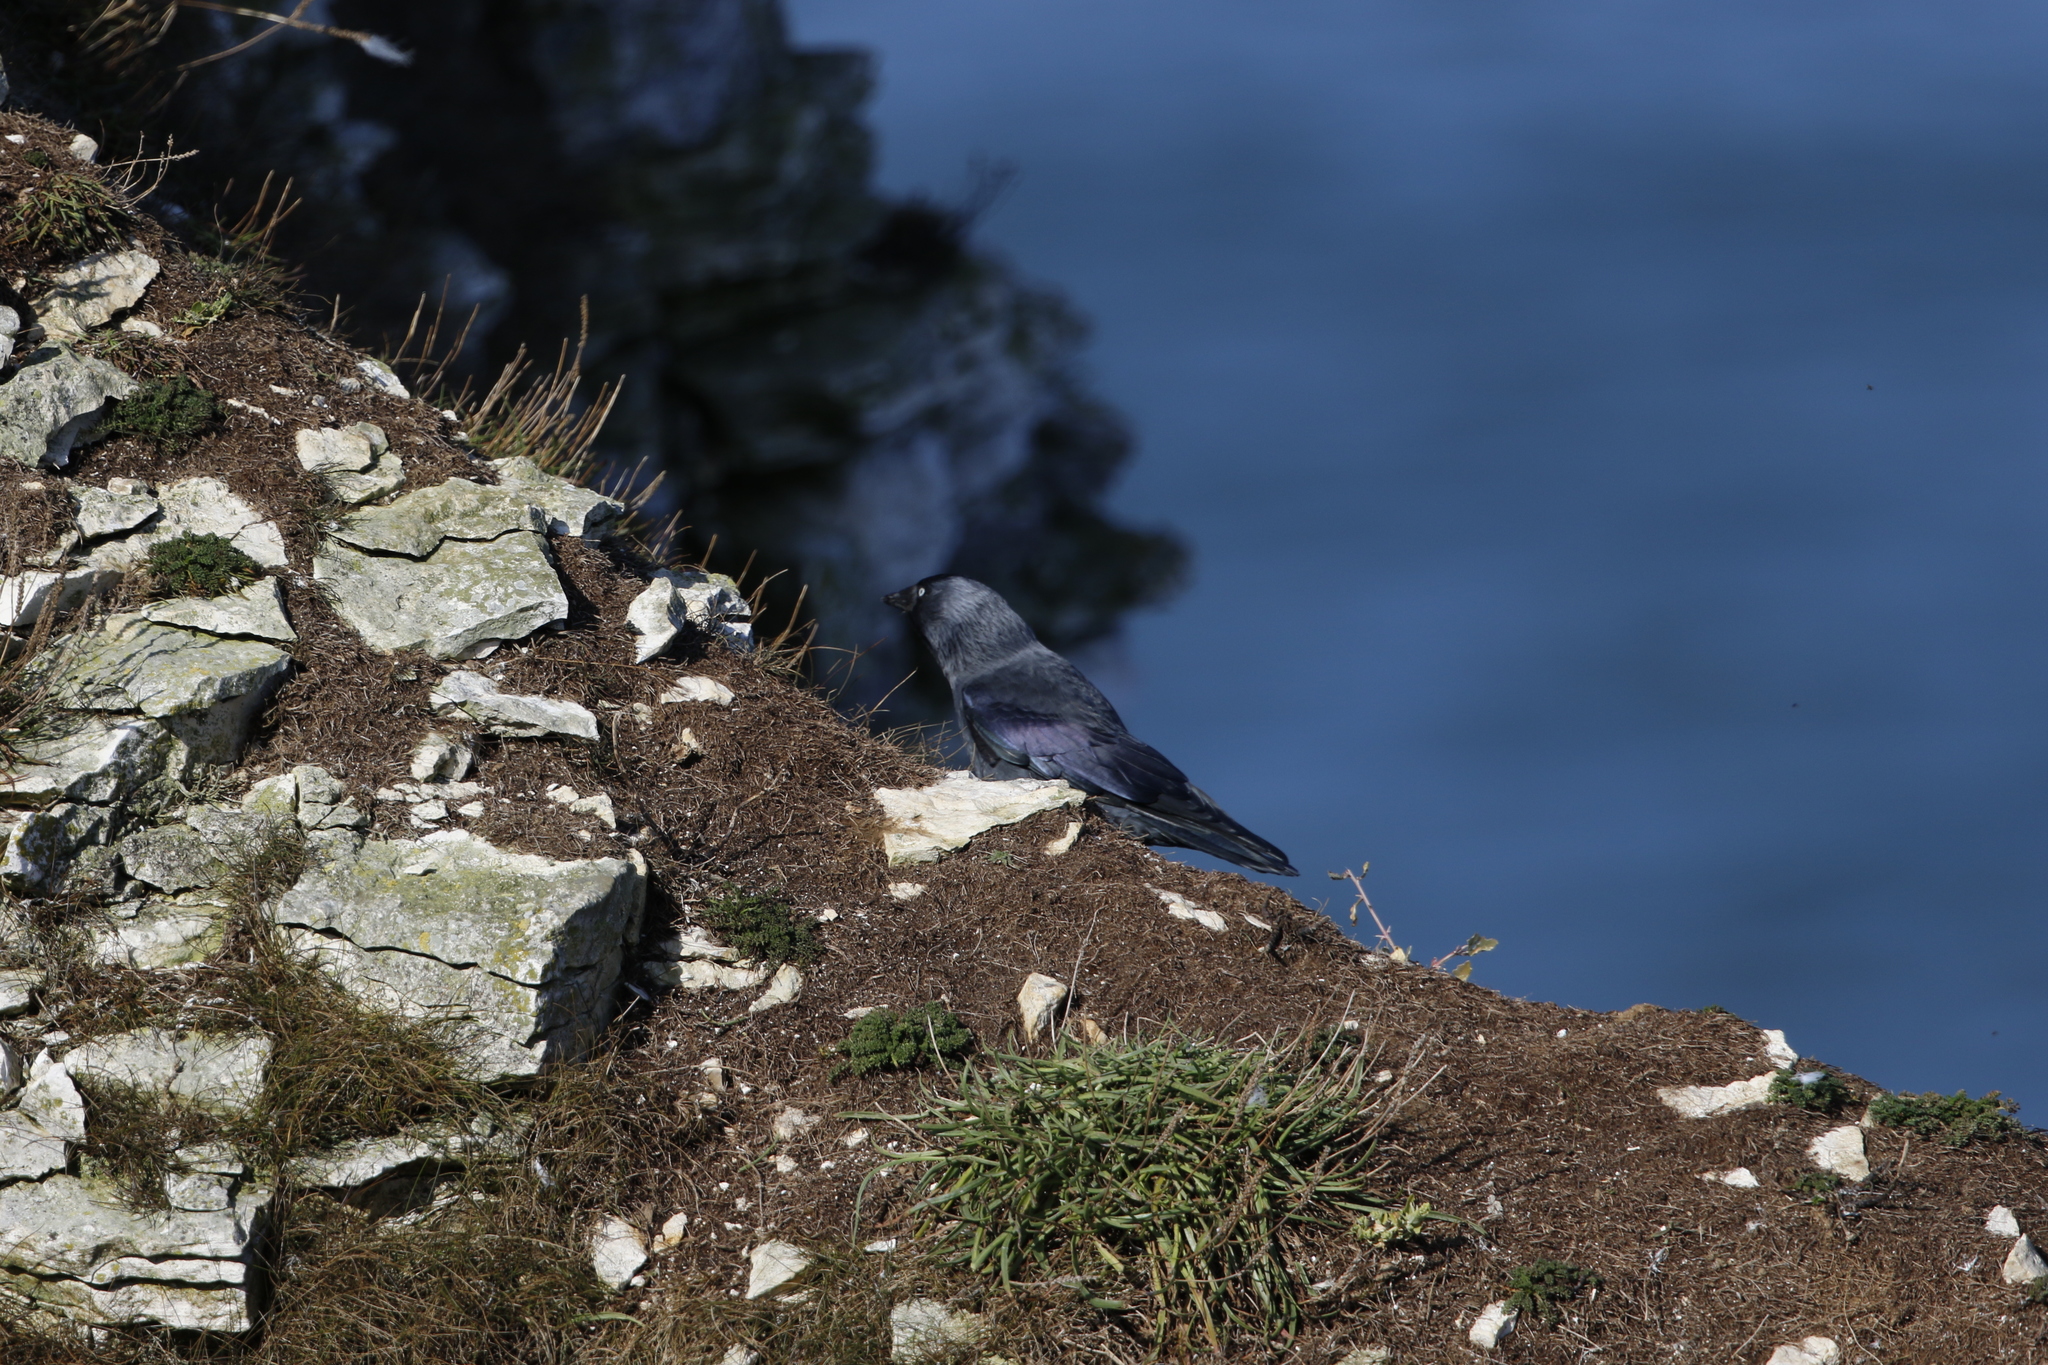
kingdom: Animalia
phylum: Chordata
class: Aves
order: Passeriformes
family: Corvidae
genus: Coloeus
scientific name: Coloeus monedula
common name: Western jackdaw
